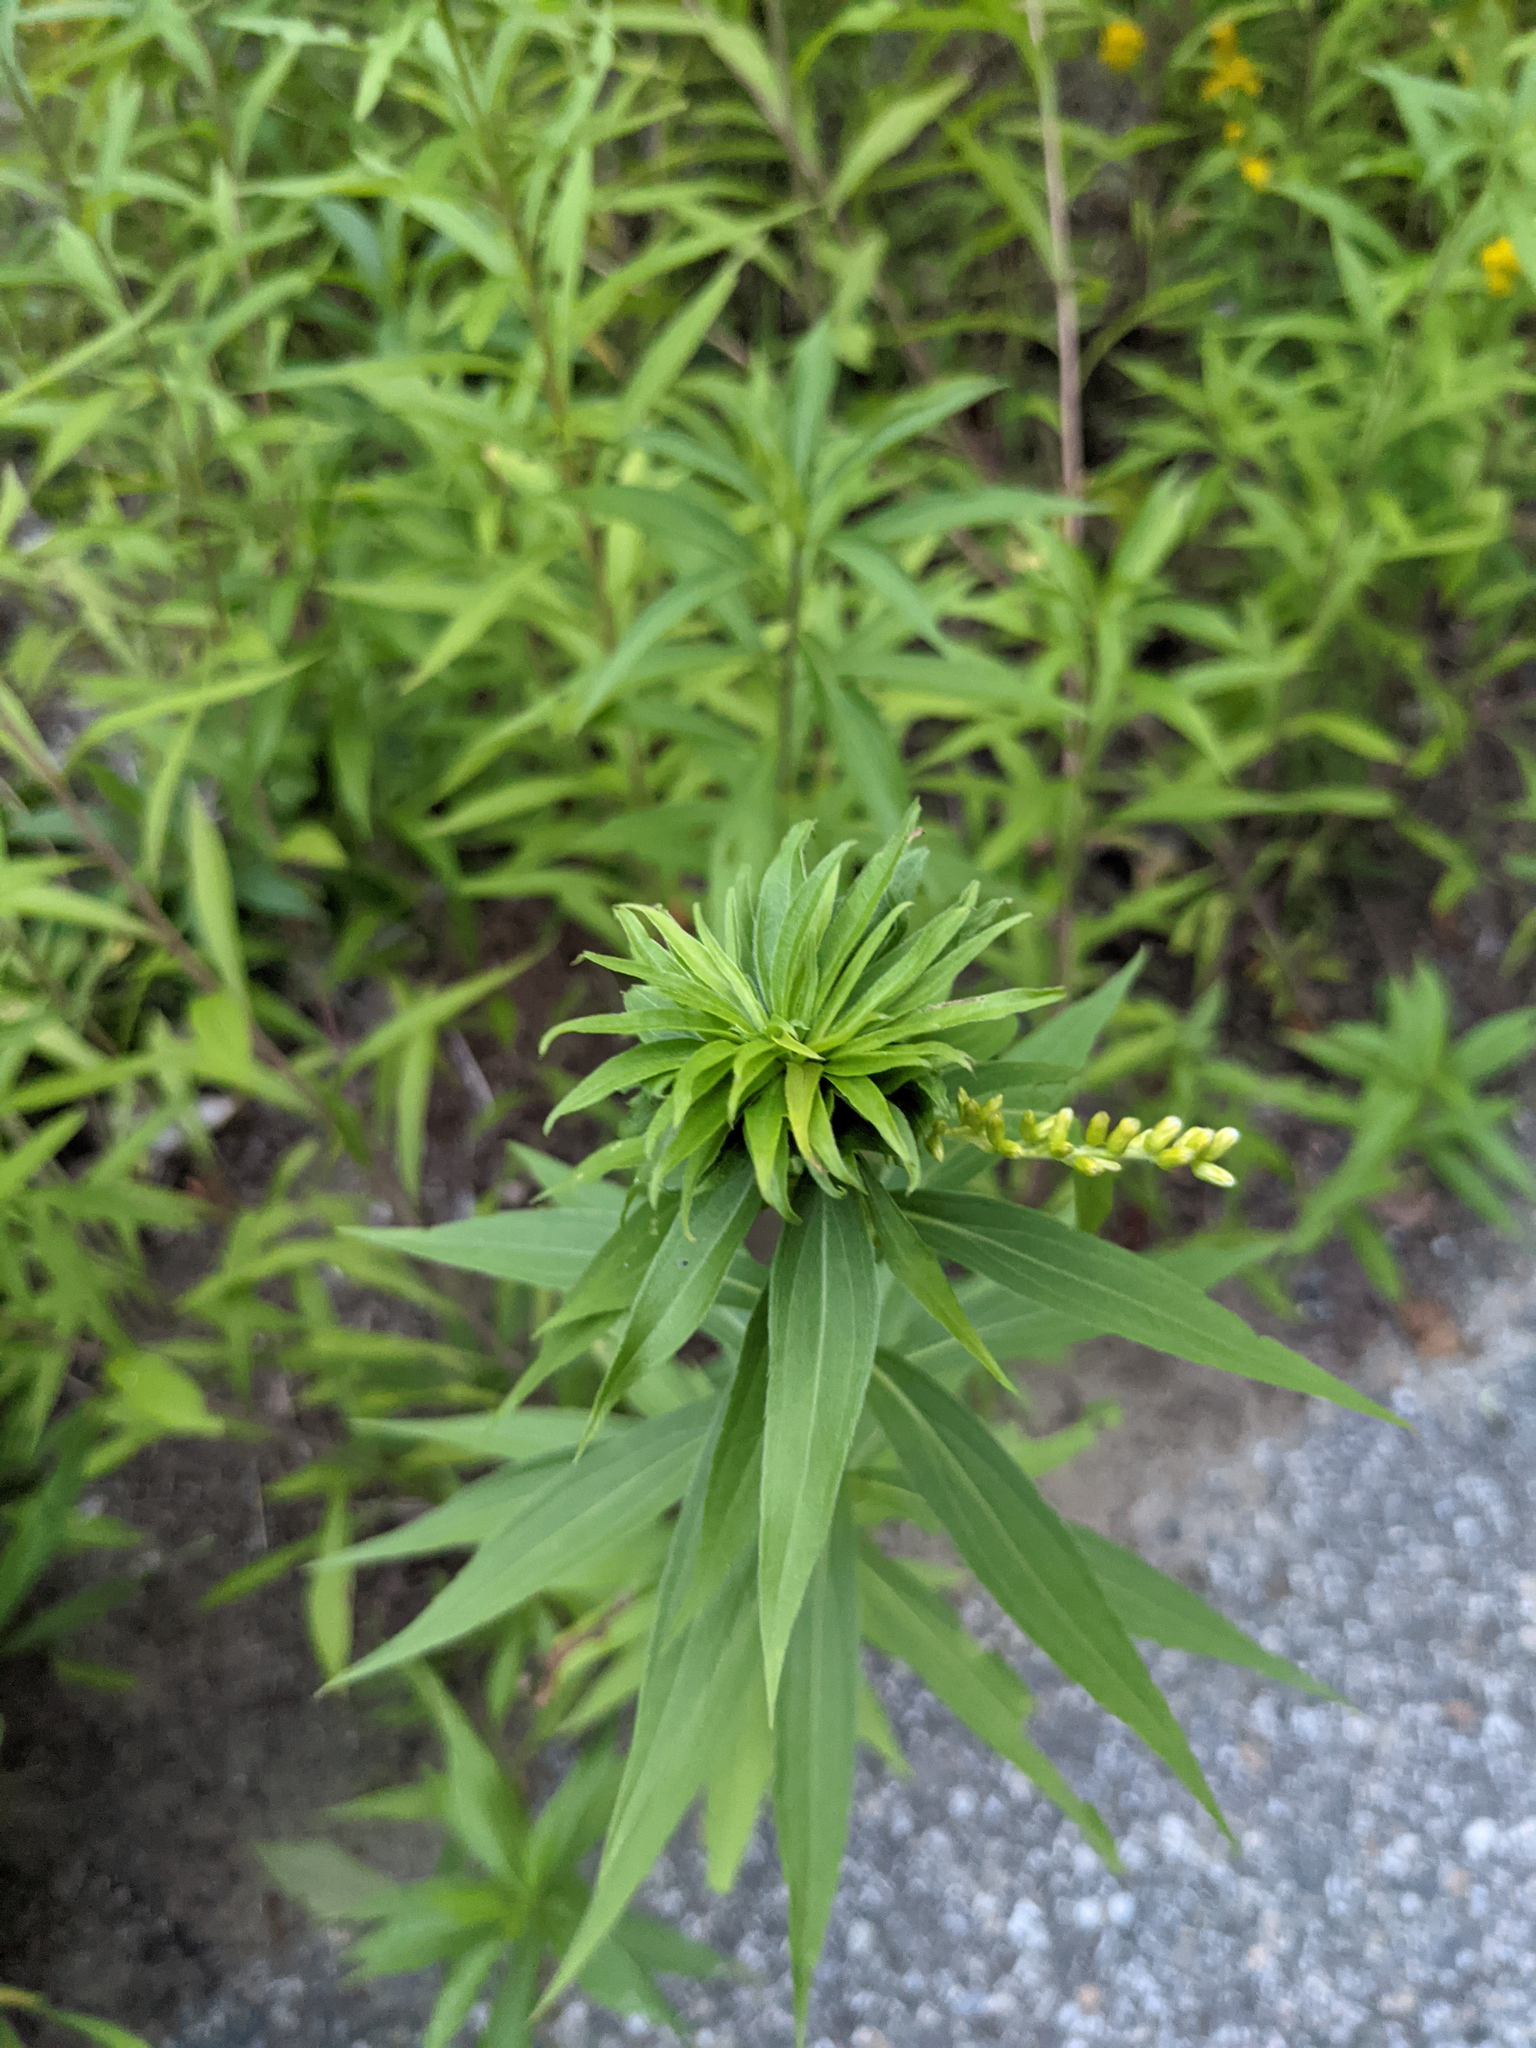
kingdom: Animalia
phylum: Arthropoda
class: Insecta
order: Diptera
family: Cecidomyiidae
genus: Rhopalomyia
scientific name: Rhopalomyia solidaginis
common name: Goldenrod bunch gall midge
